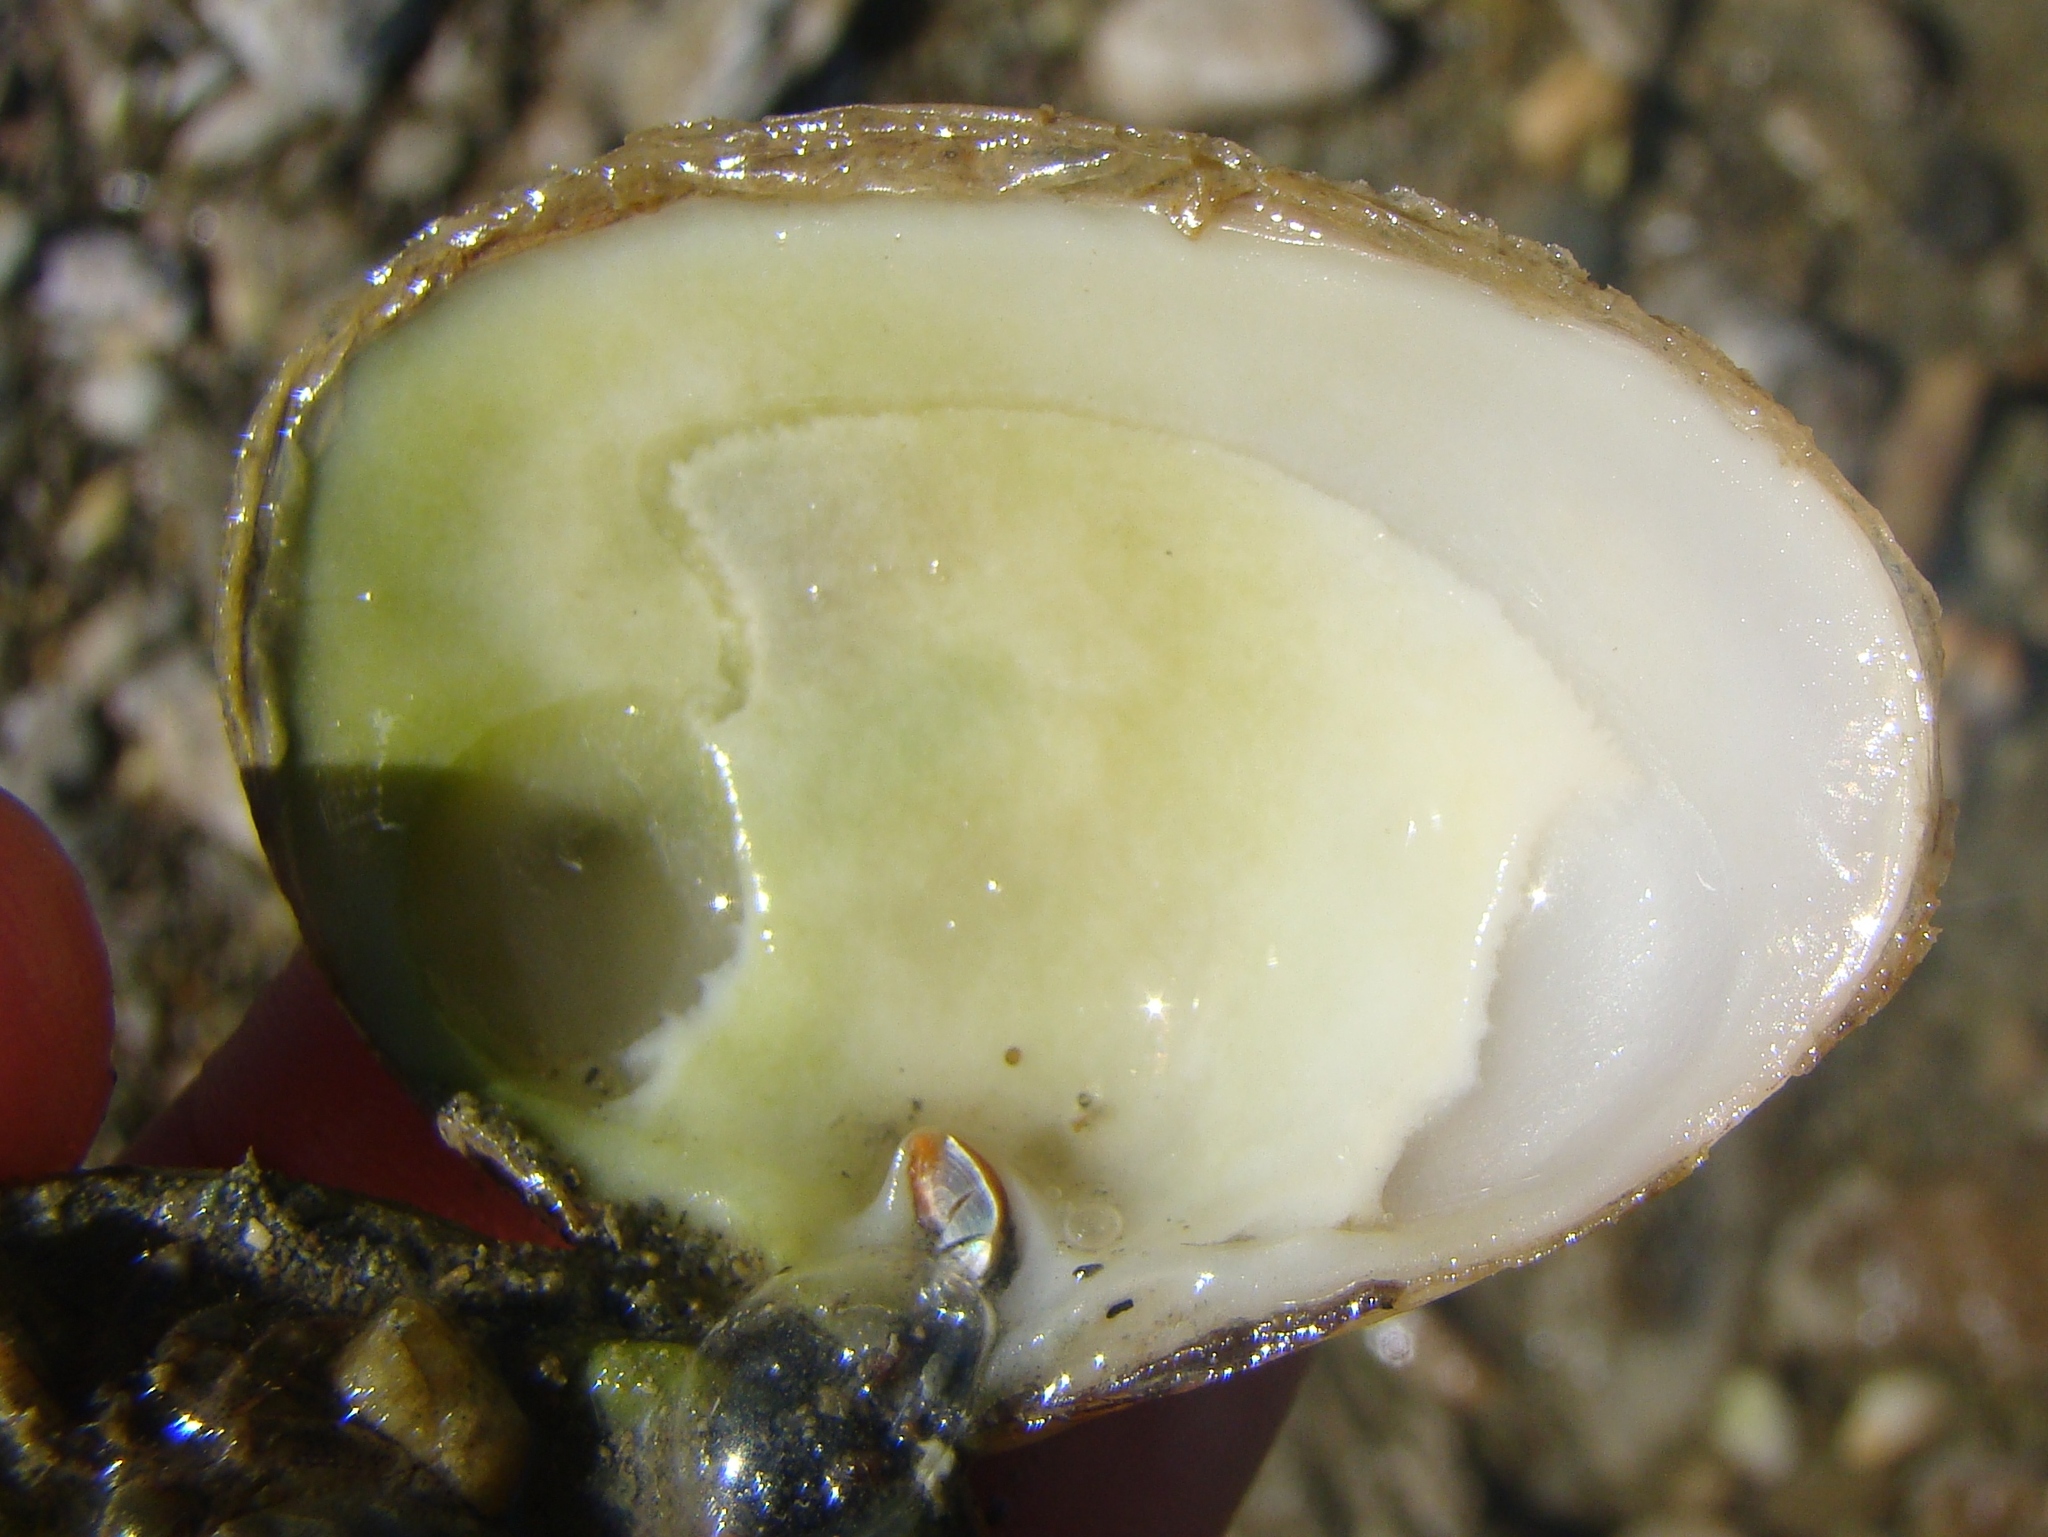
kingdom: Animalia
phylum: Mollusca
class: Bivalvia
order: Venerida
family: Mesodesmatidae
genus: Paphies
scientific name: Paphies australis
